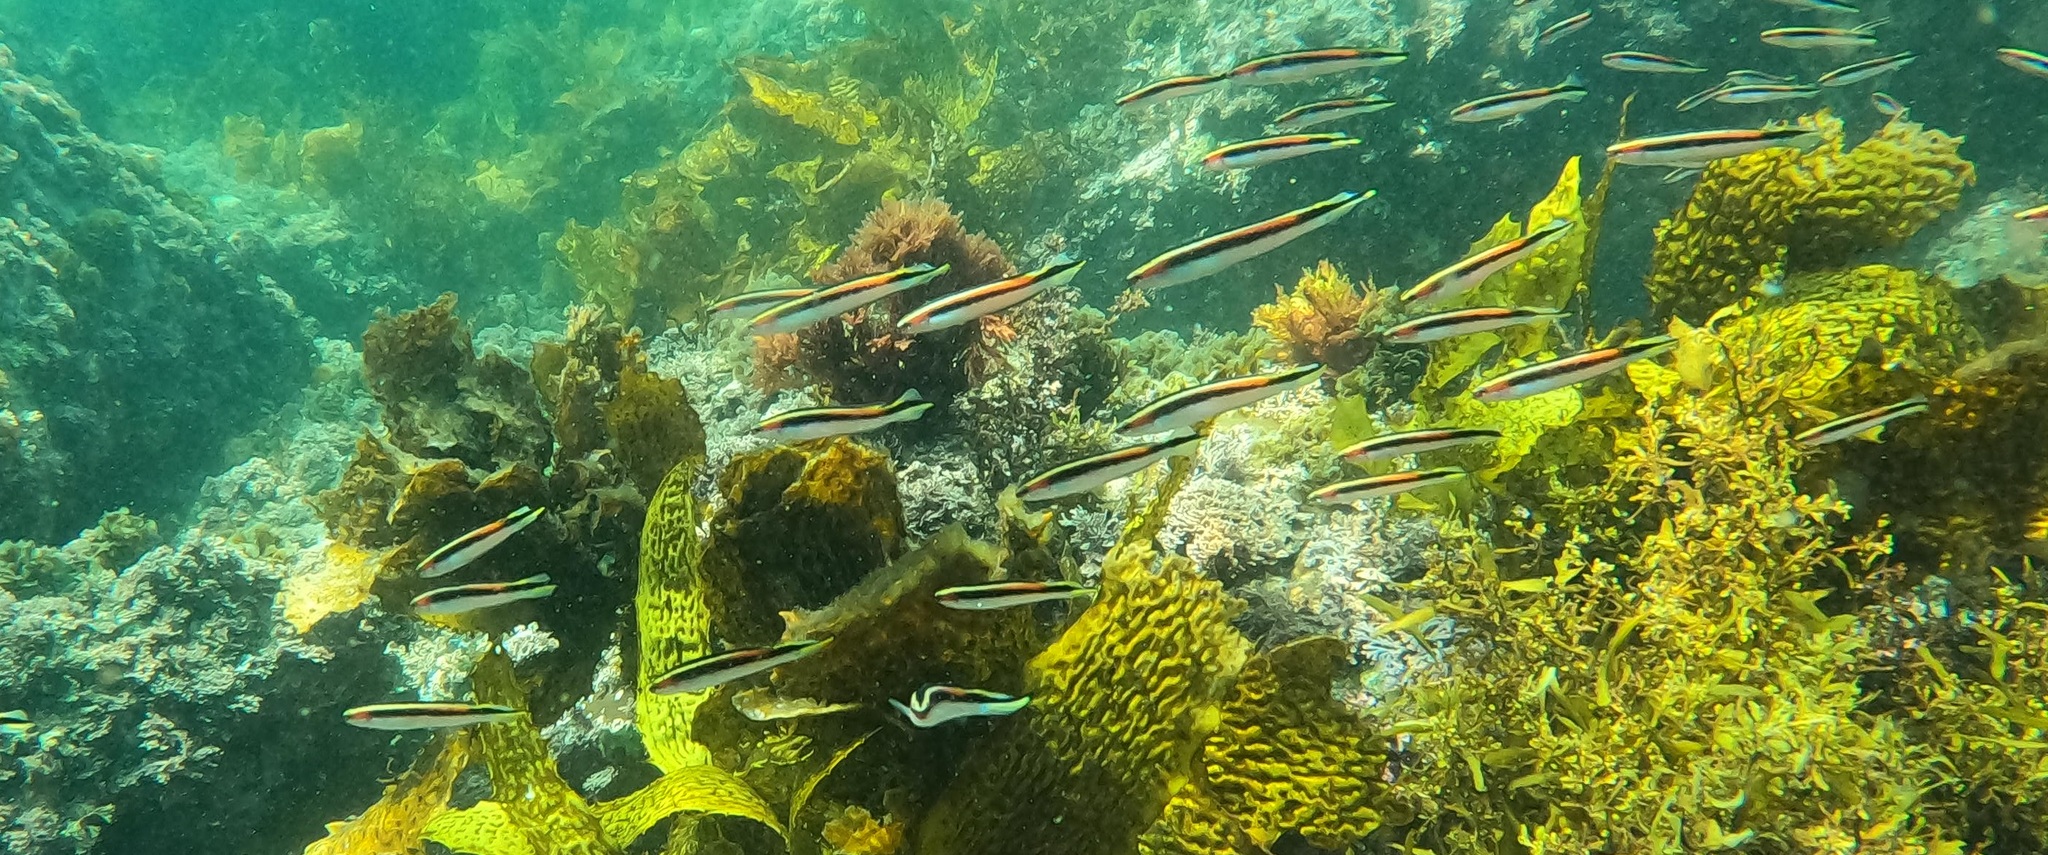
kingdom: Animalia
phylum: Chordata
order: Perciformes
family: Plesiopidae
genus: Trachinops
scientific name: Trachinops taeniatus
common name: Eastern hulafish
